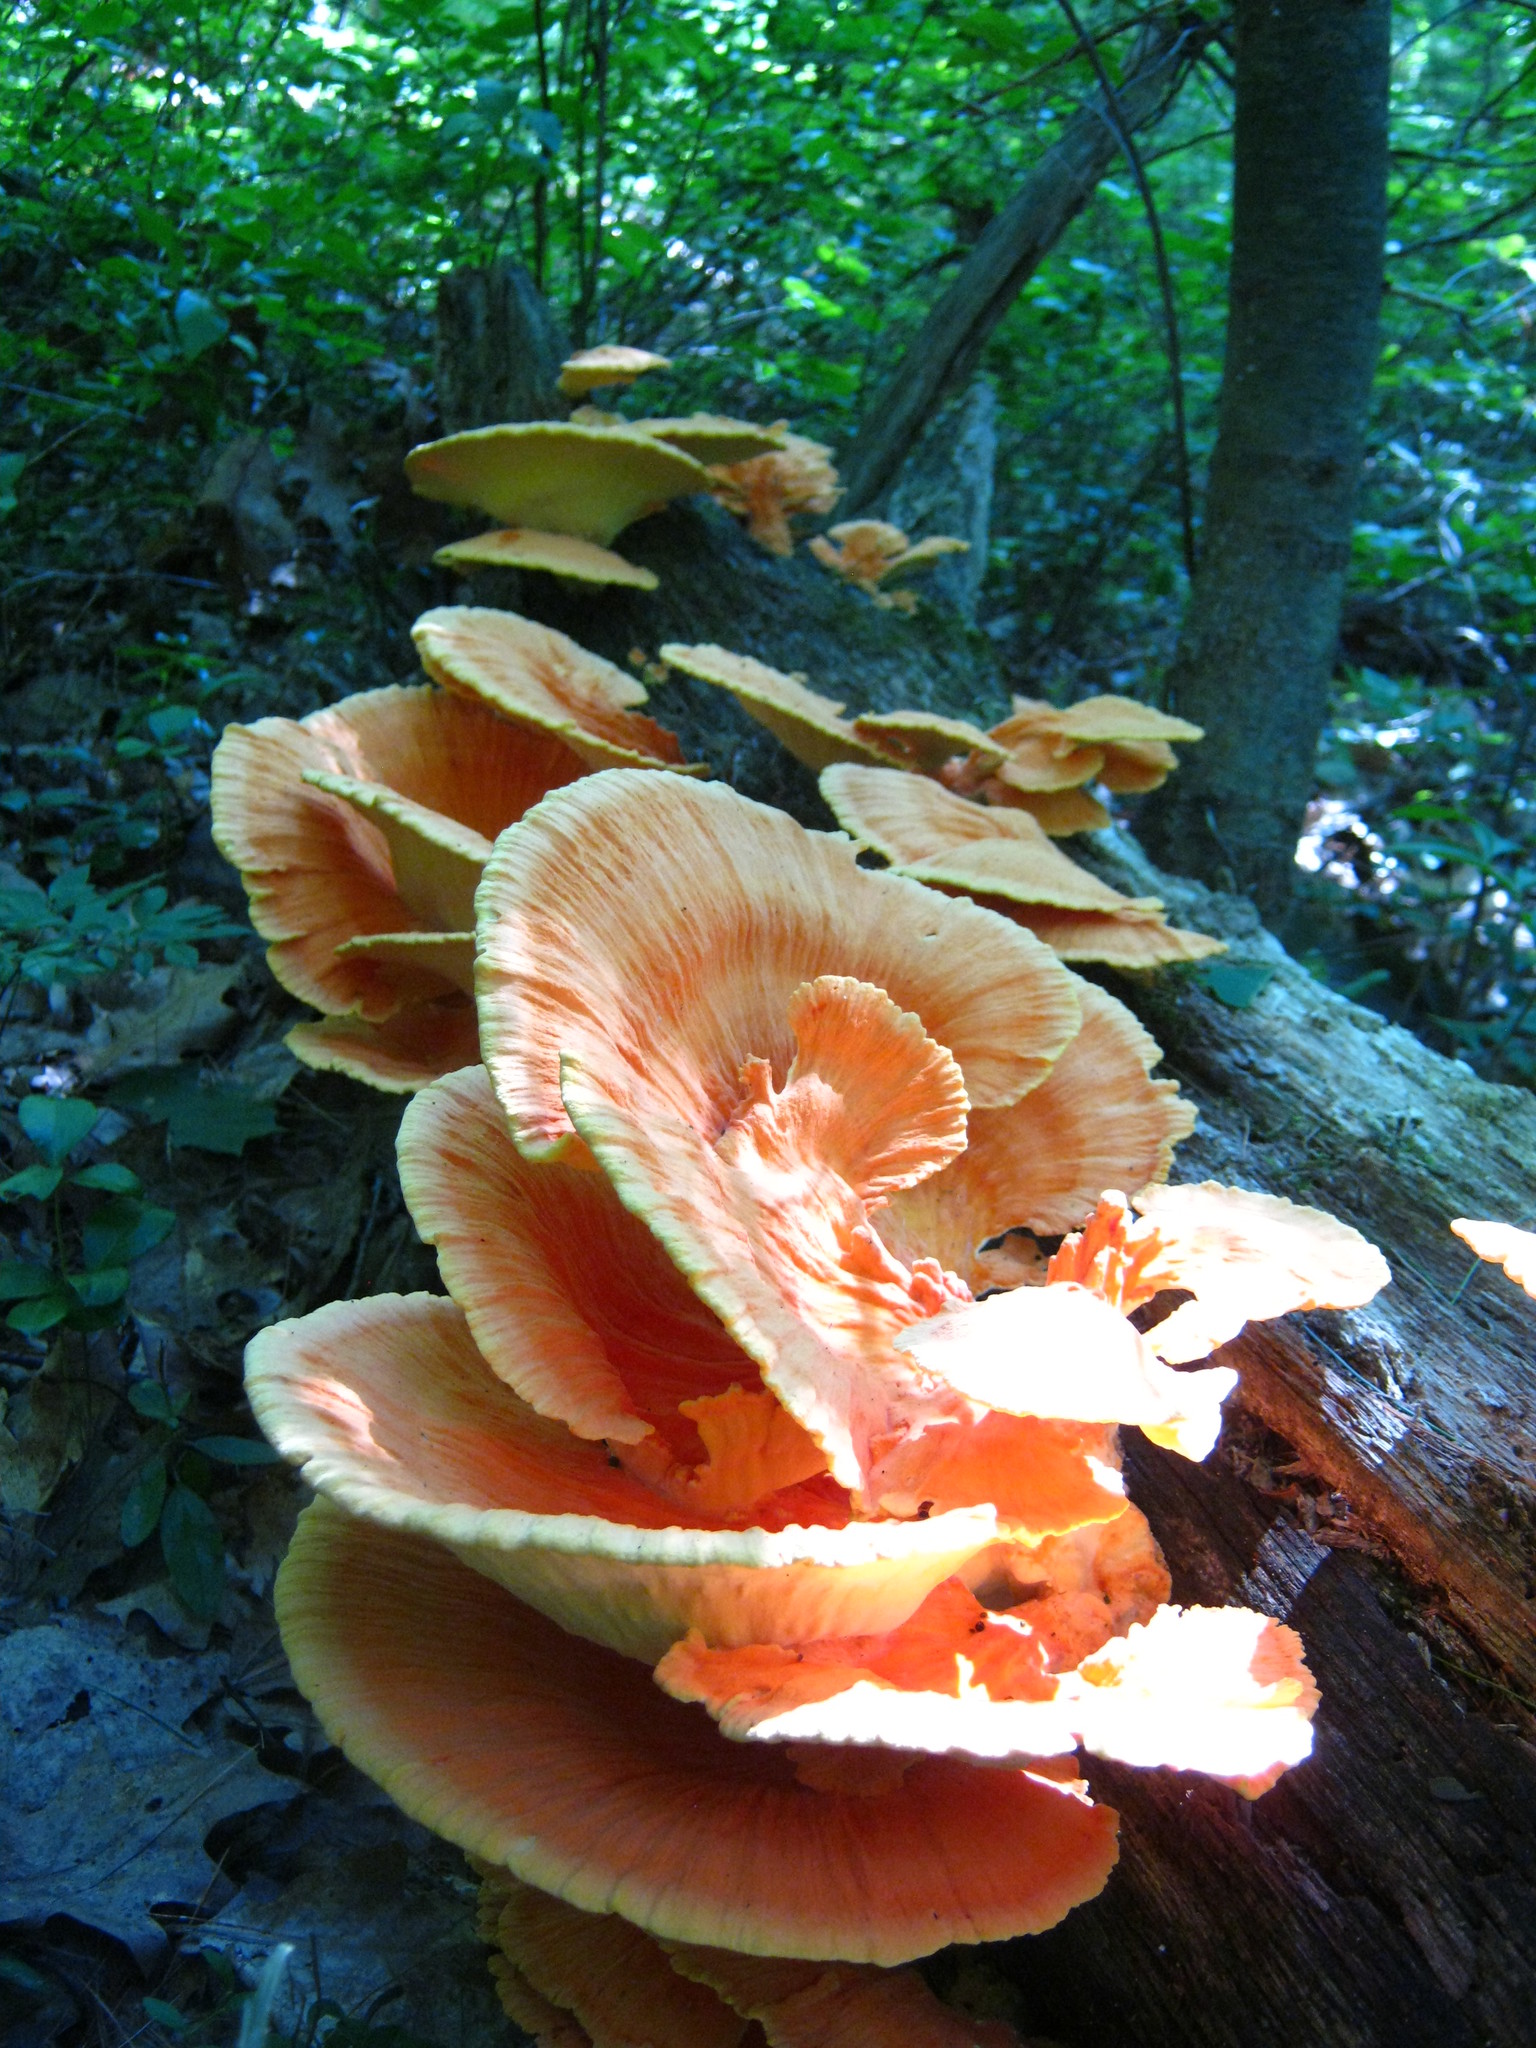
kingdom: Fungi
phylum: Basidiomycota
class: Agaricomycetes
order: Polyporales
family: Laetiporaceae
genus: Laetiporus
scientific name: Laetiporus sulphureus
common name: Chicken of the woods
